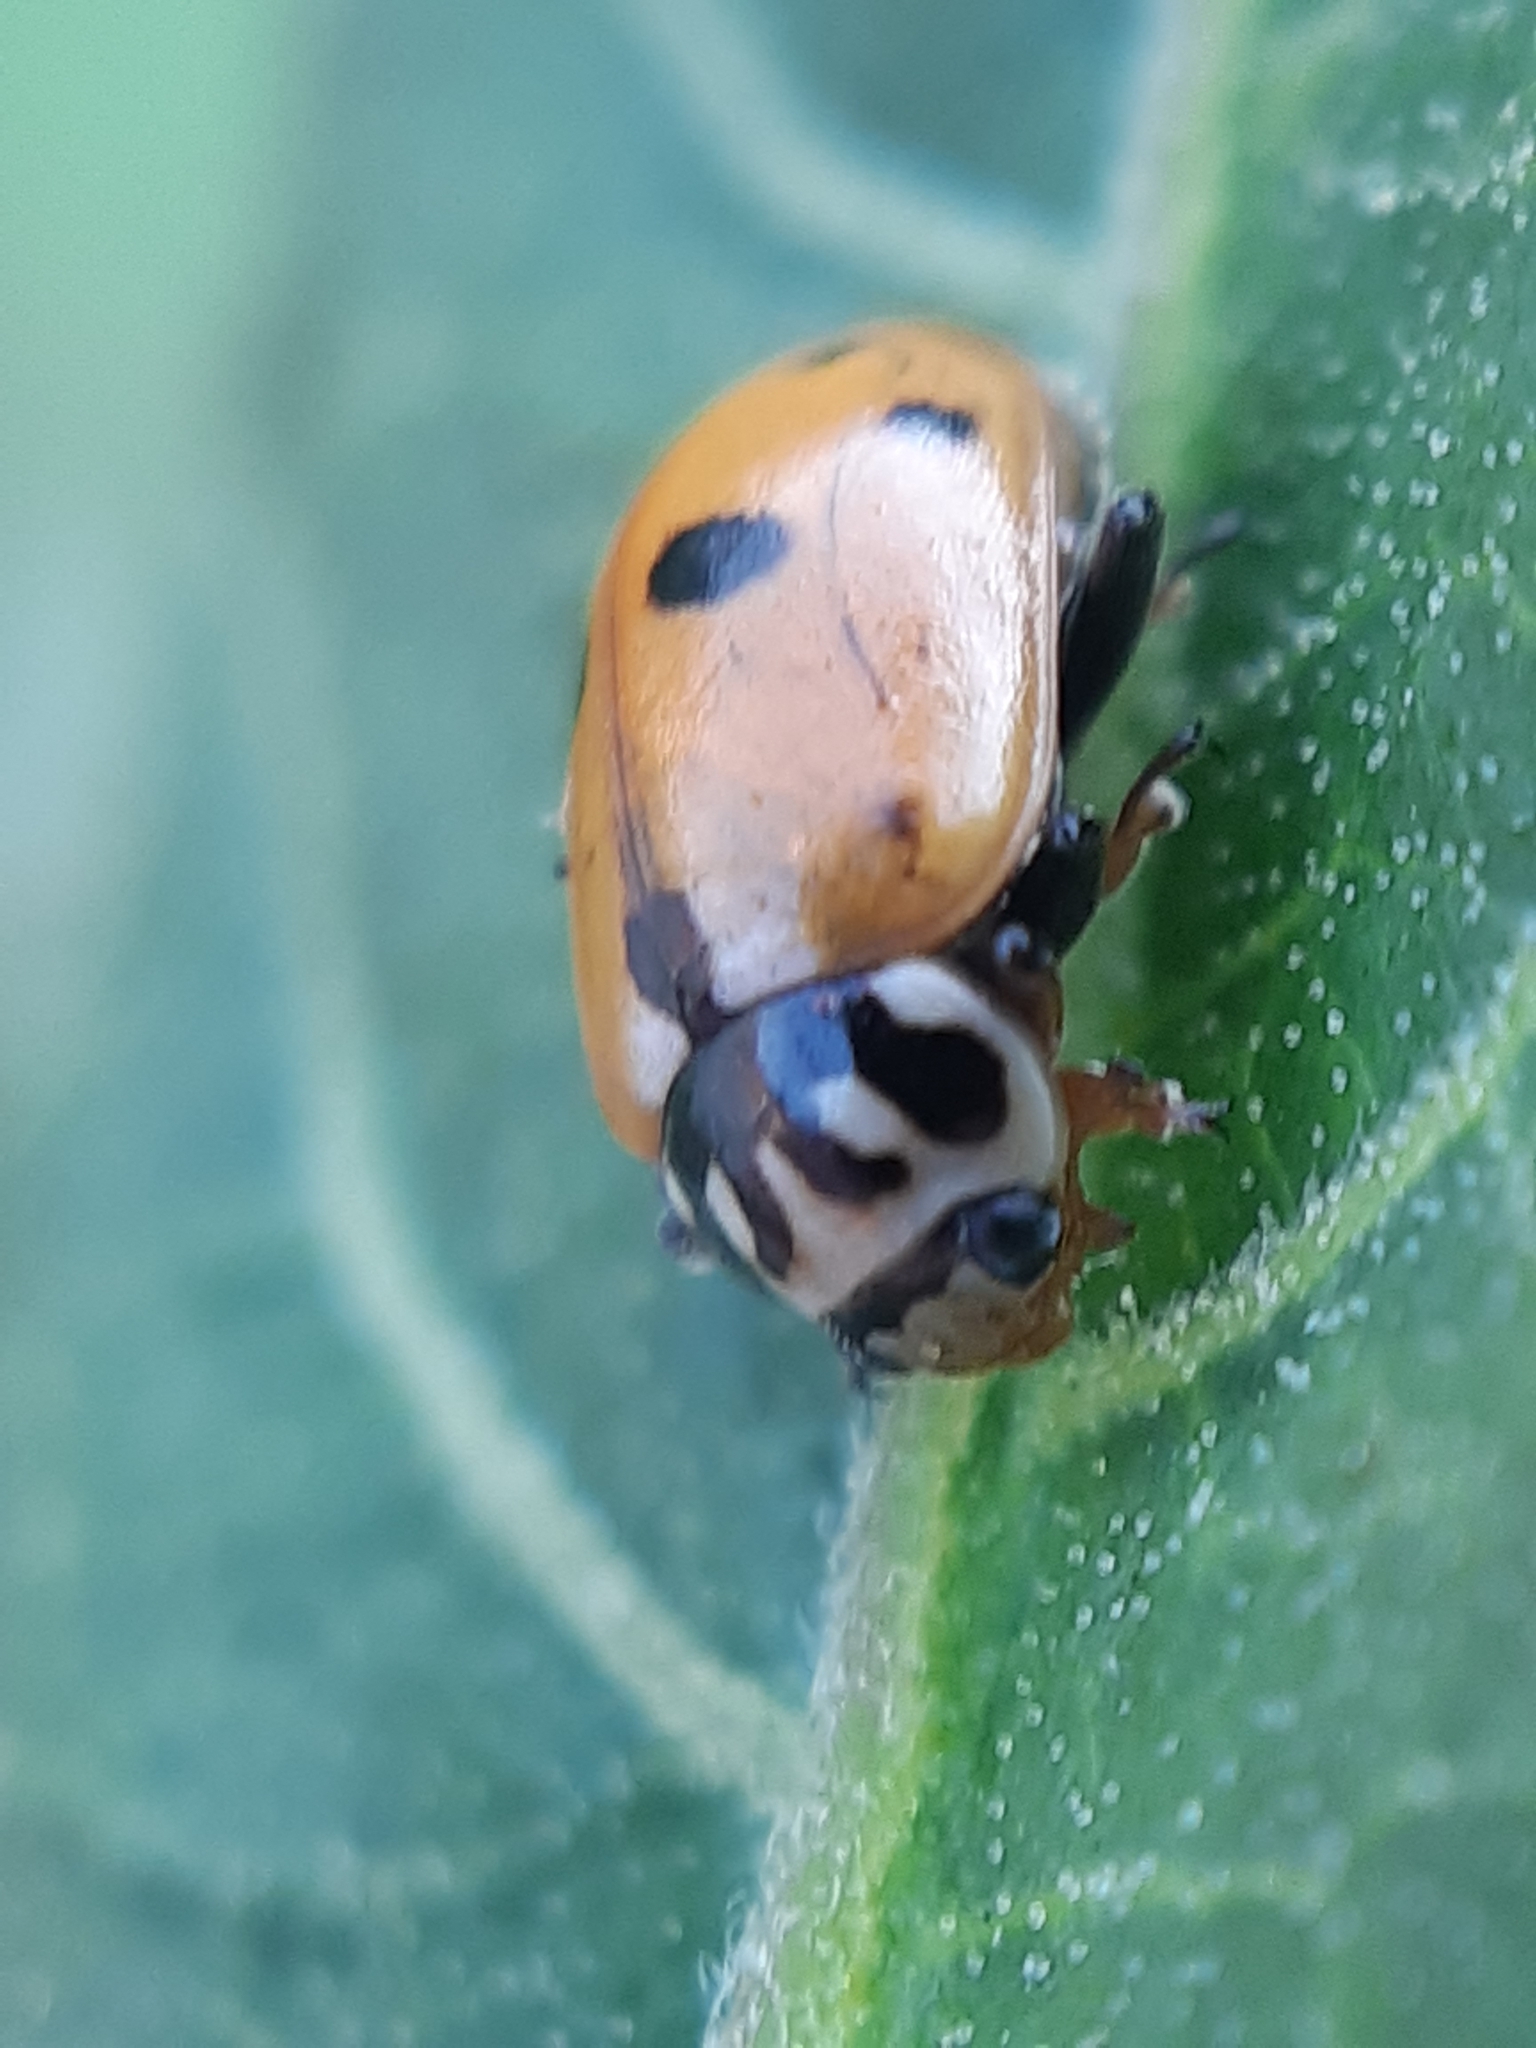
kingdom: Animalia
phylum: Arthropoda
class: Insecta
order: Coleoptera
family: Coccinellidae
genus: Hippodamia
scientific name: Hippodamia variegata
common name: Ladybird beetle
